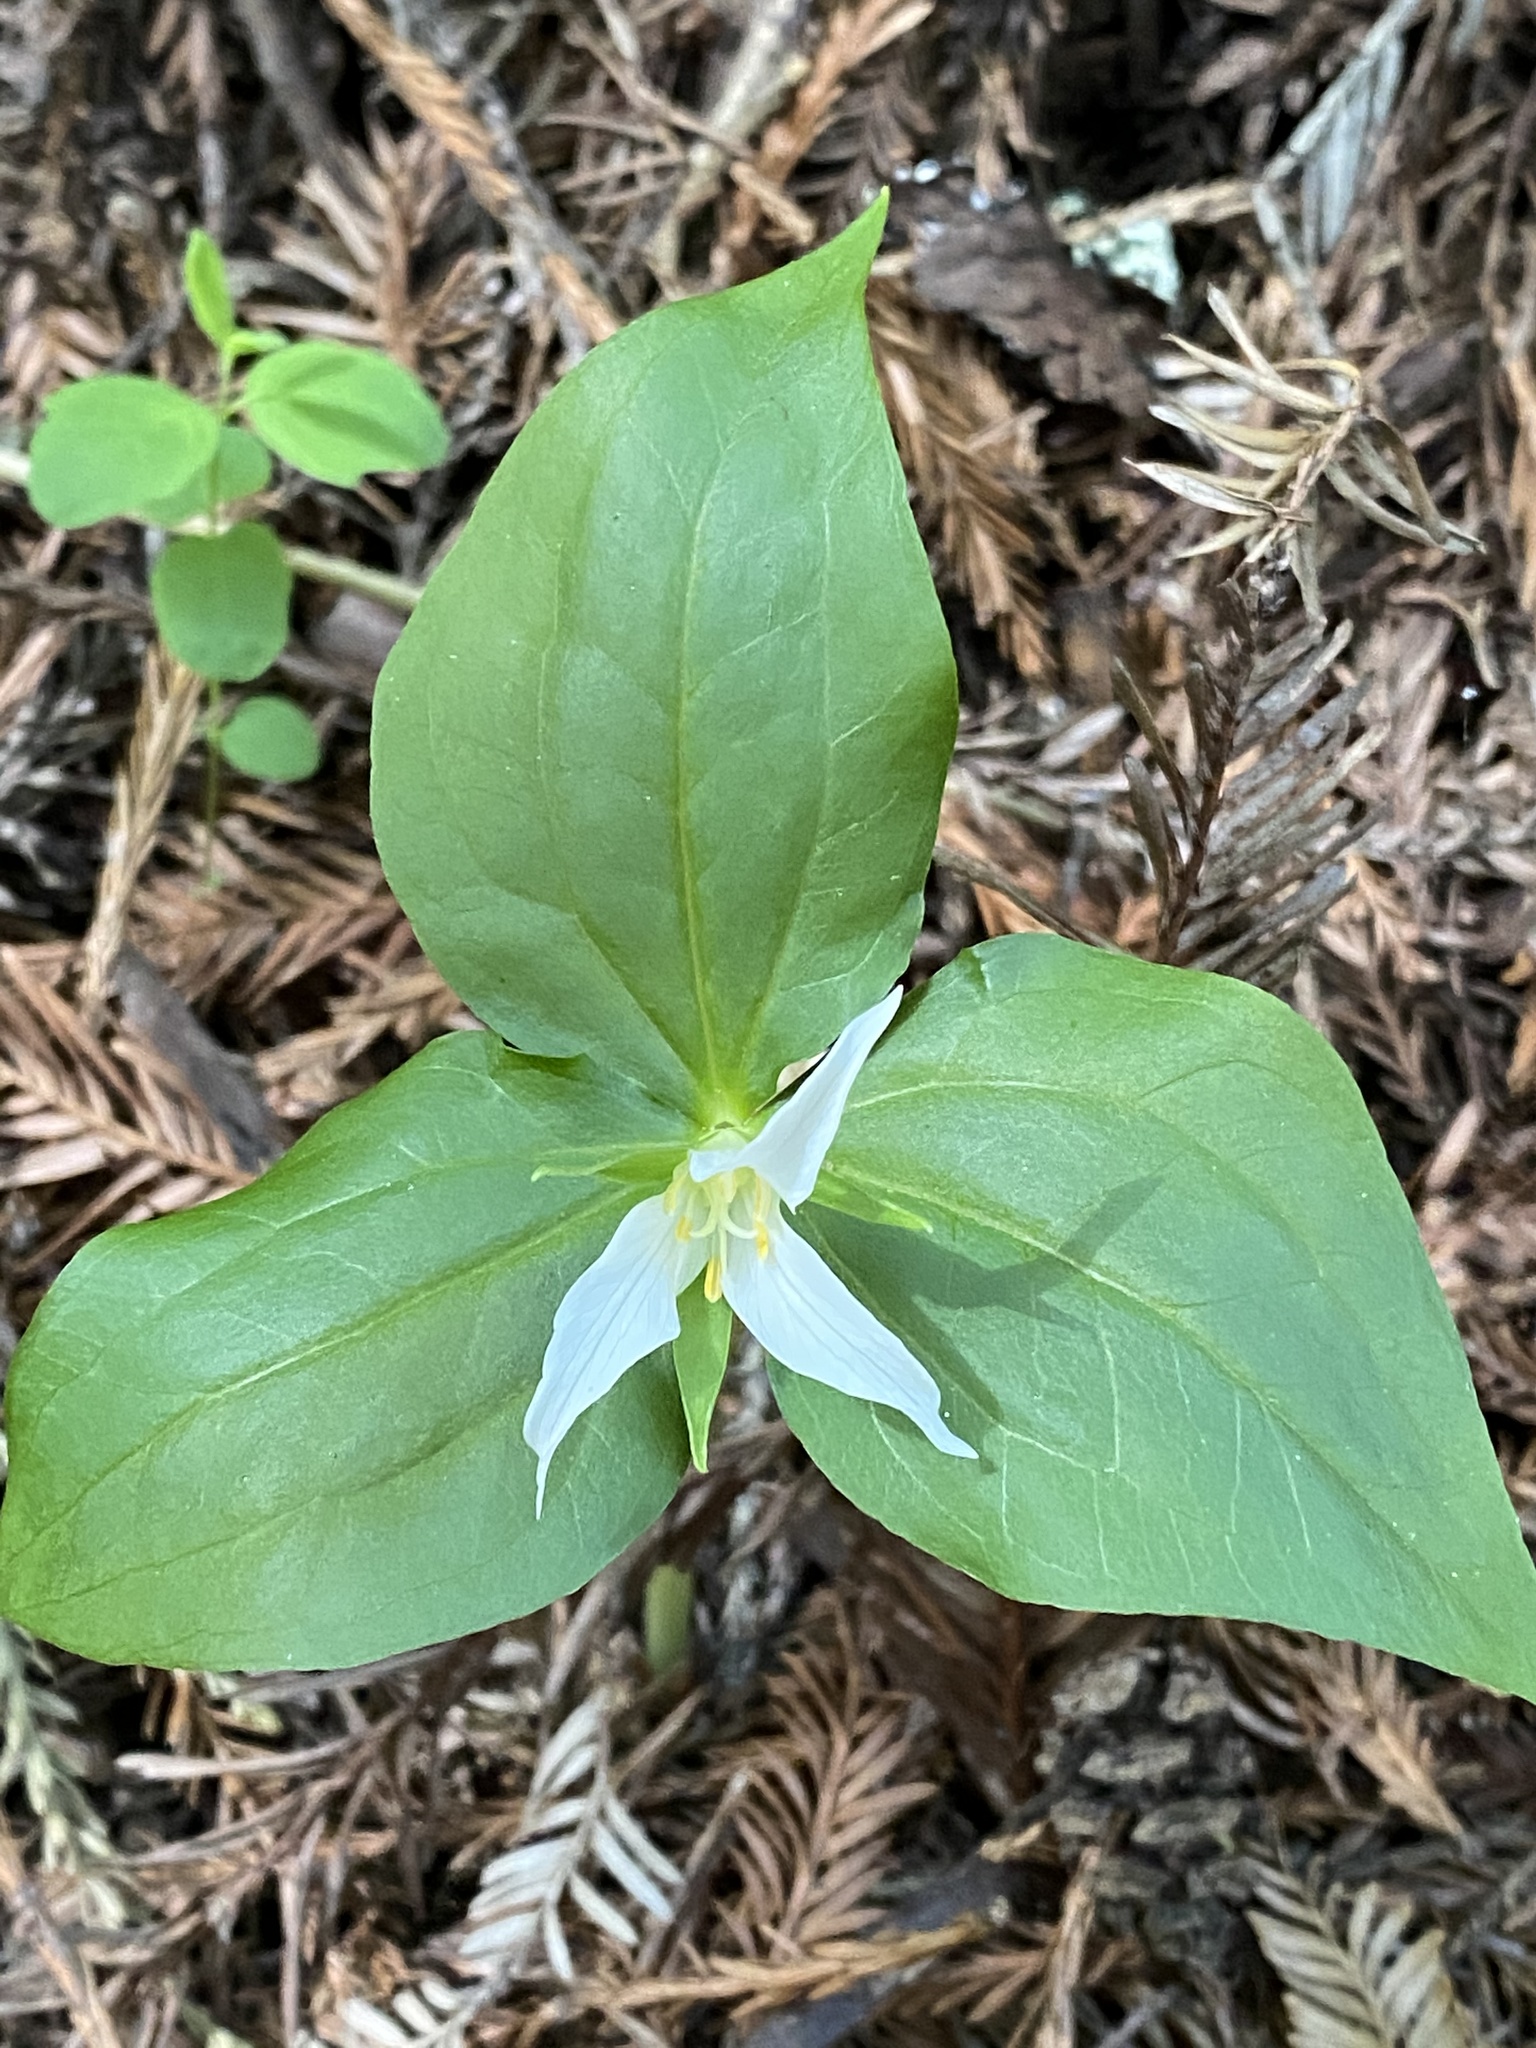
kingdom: Plantae
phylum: Tracheophyta
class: Liliopsida
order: Liliales
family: Melanthiaceae
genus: Trillium
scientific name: Trillium ovatum
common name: Pacific trillium
